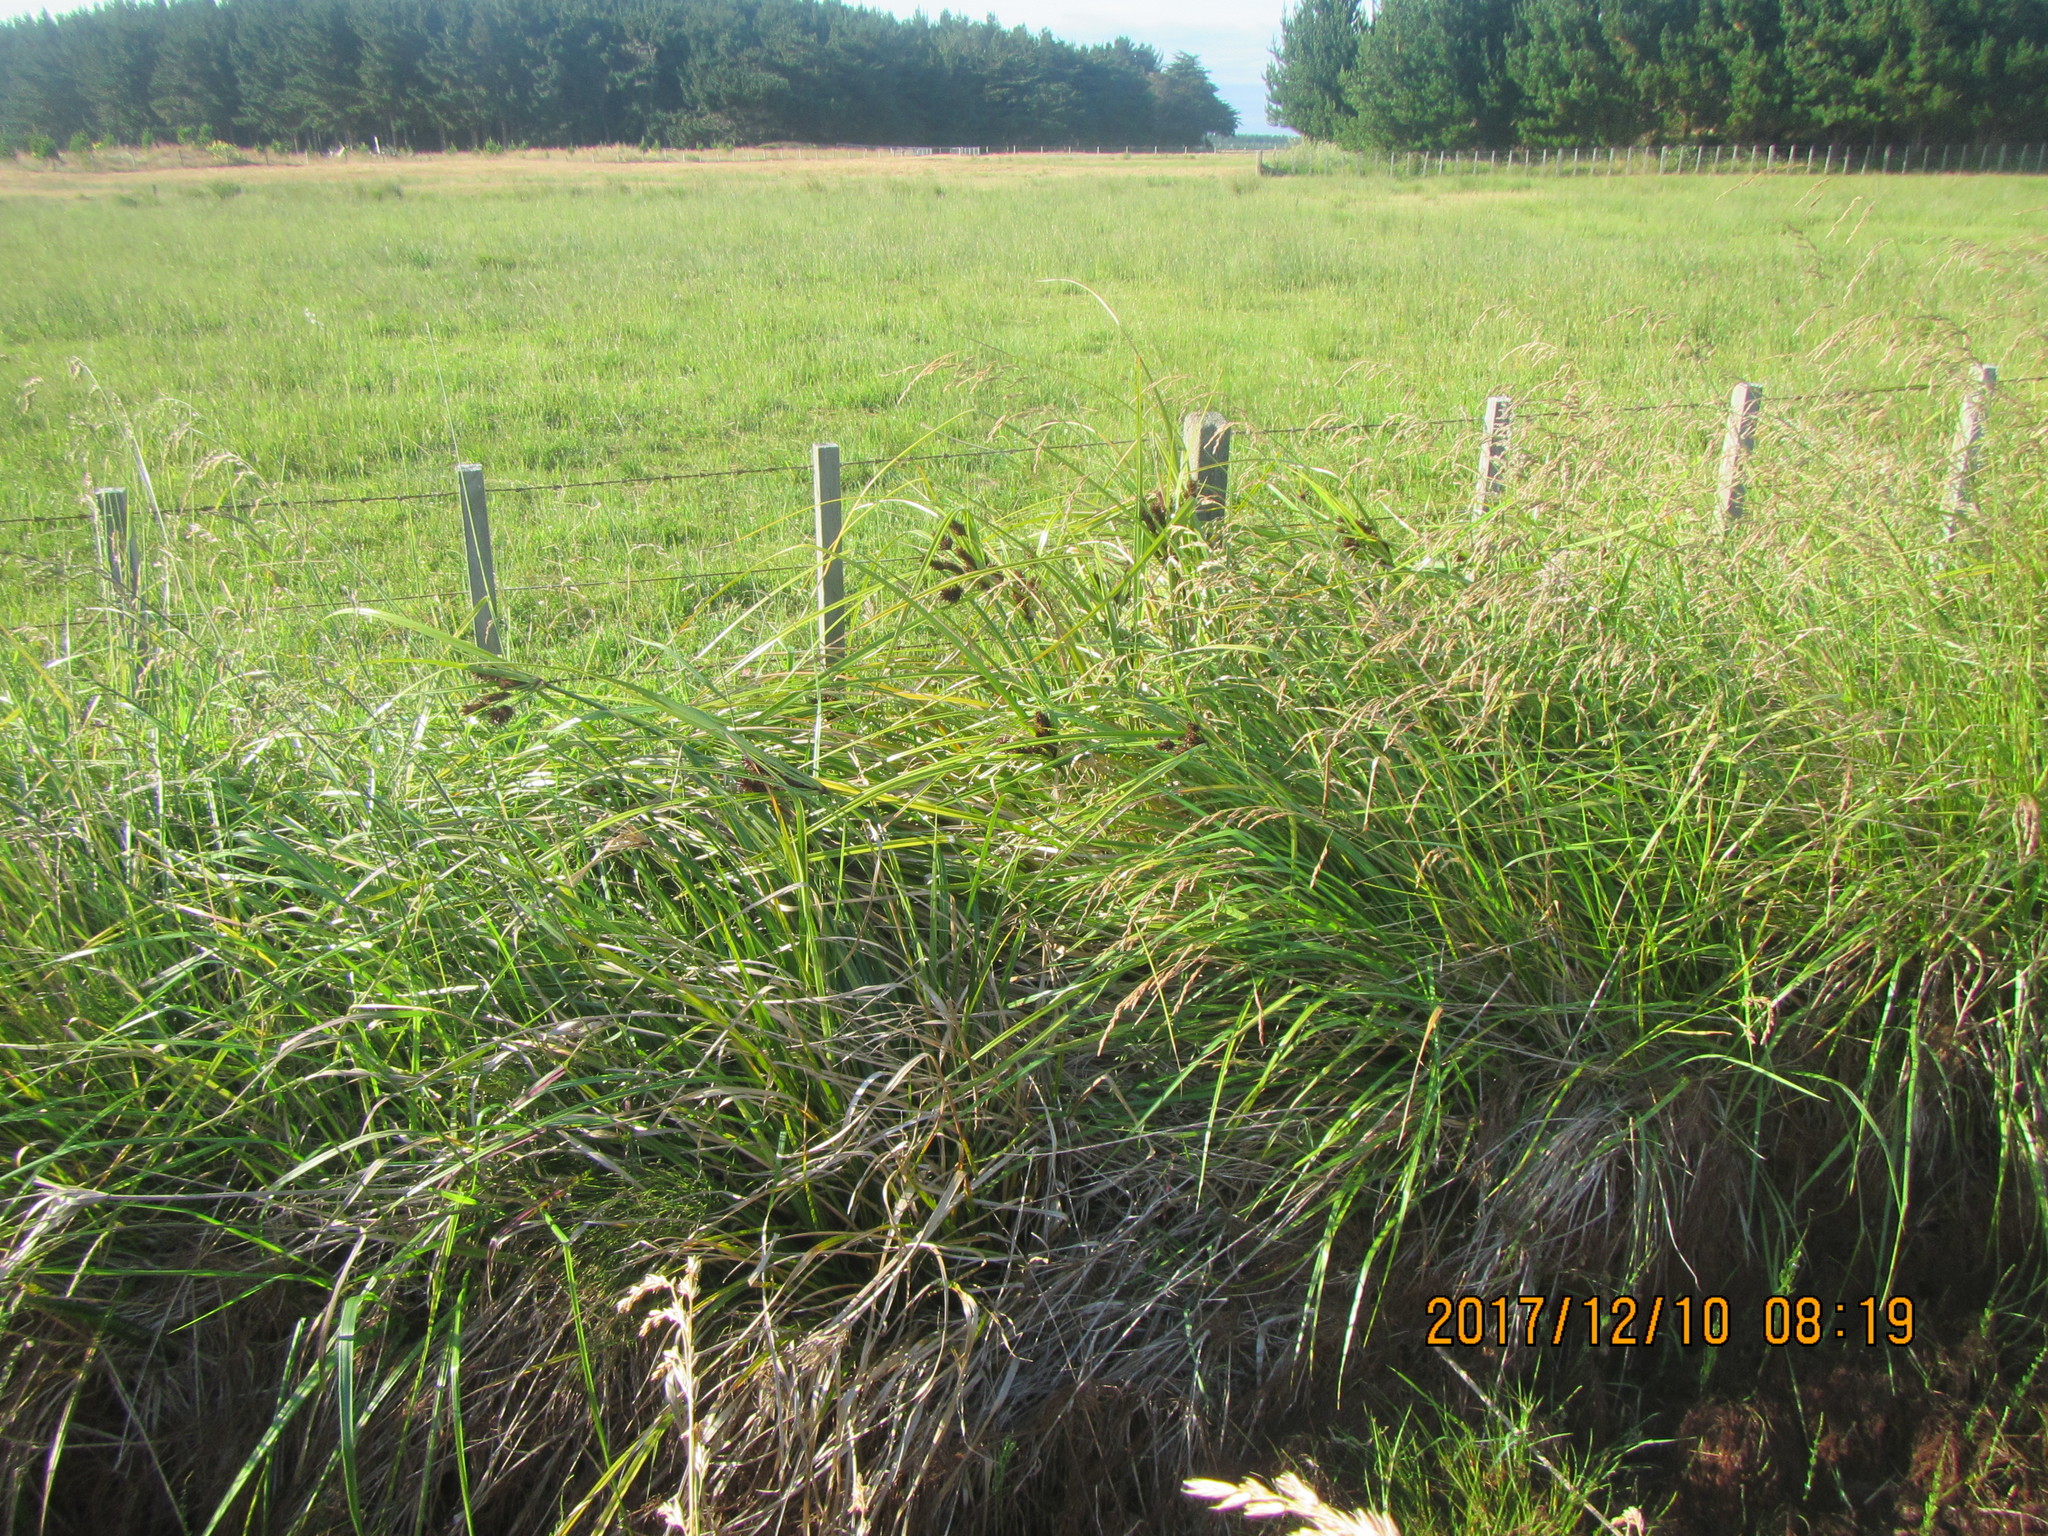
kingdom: Plantae
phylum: Tracheophyta
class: Liliopsida
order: Poales
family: Cyperaceae
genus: Cyperus
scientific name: Cyperus ustulatus
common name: Giant umbrella-sedge
